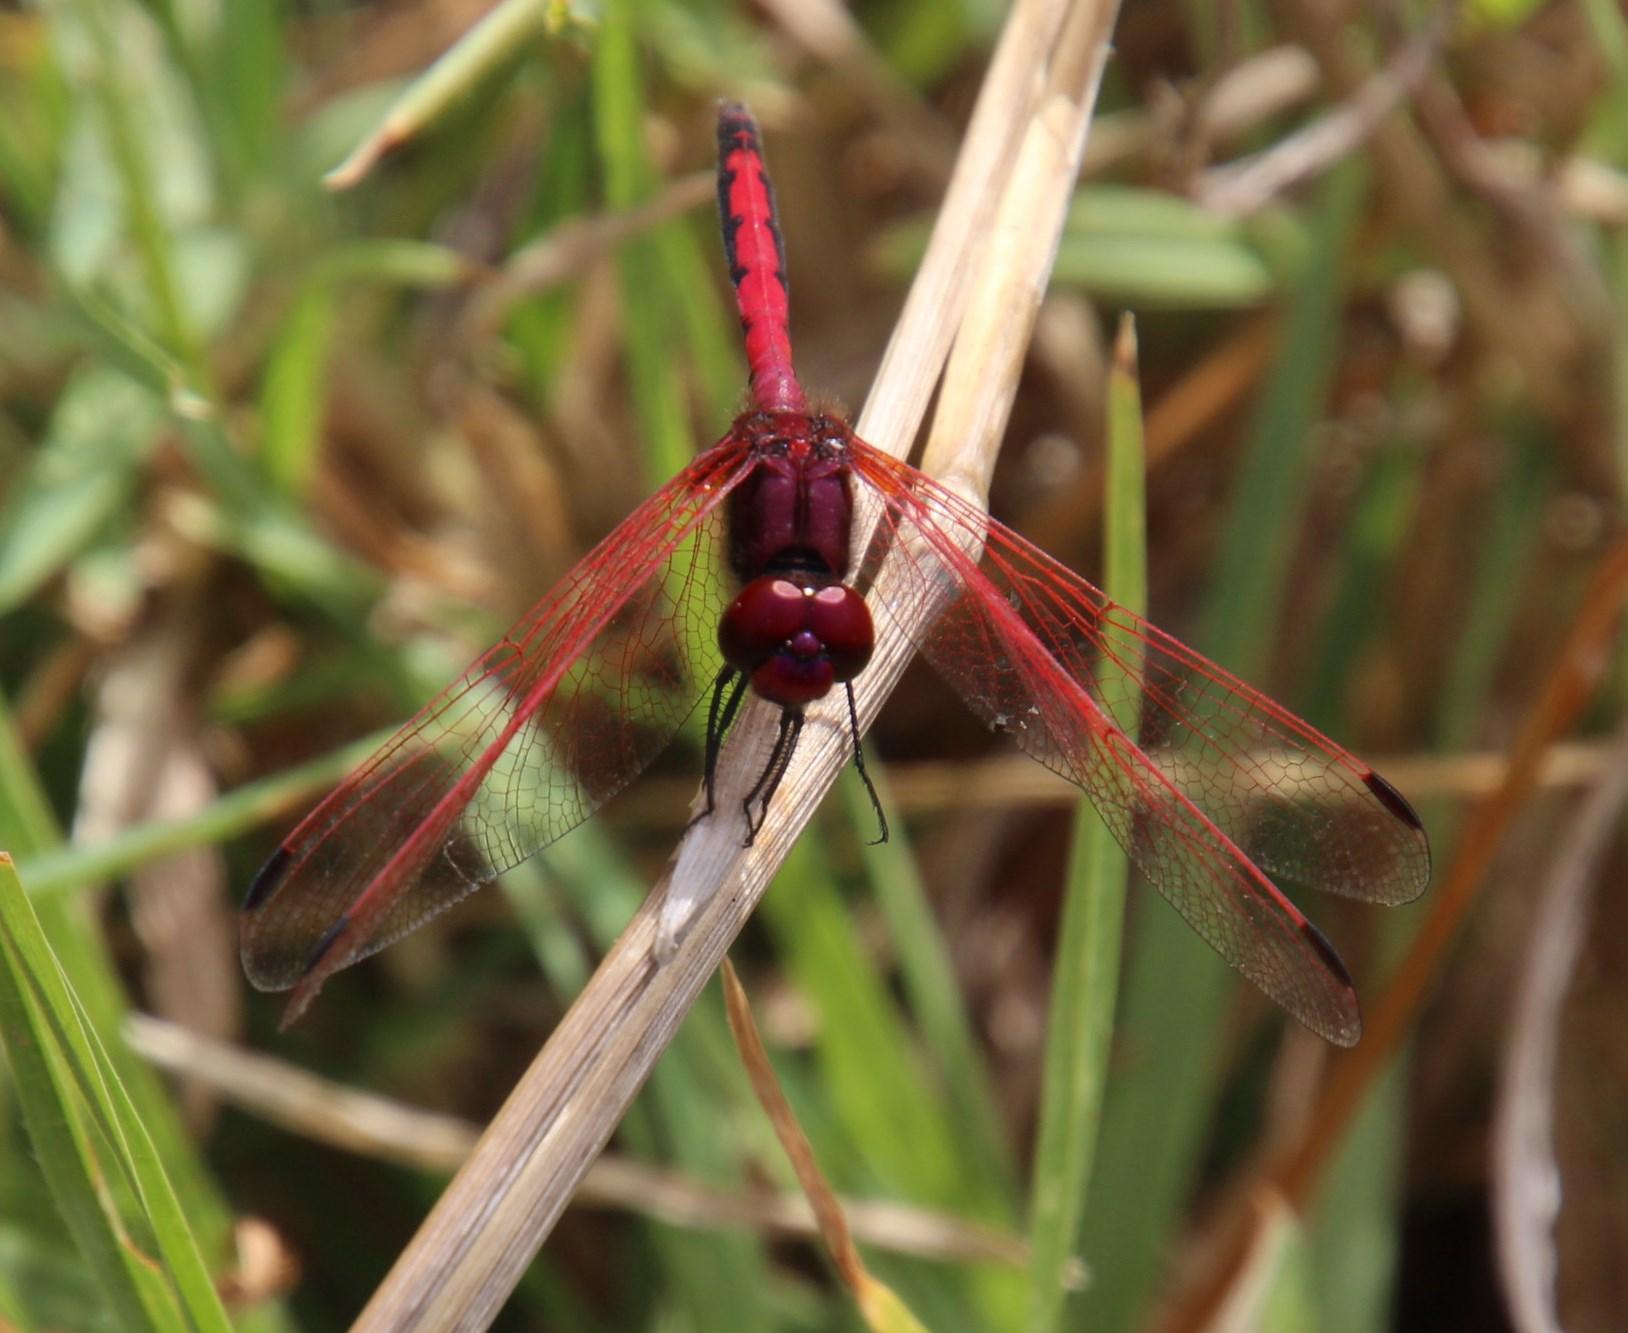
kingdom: Animalia
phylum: Arthropoda
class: Insecta
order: Odonata
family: Libellulidae
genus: Trithemis
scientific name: Trithemis arteriosa
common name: Red-veined dropwing
